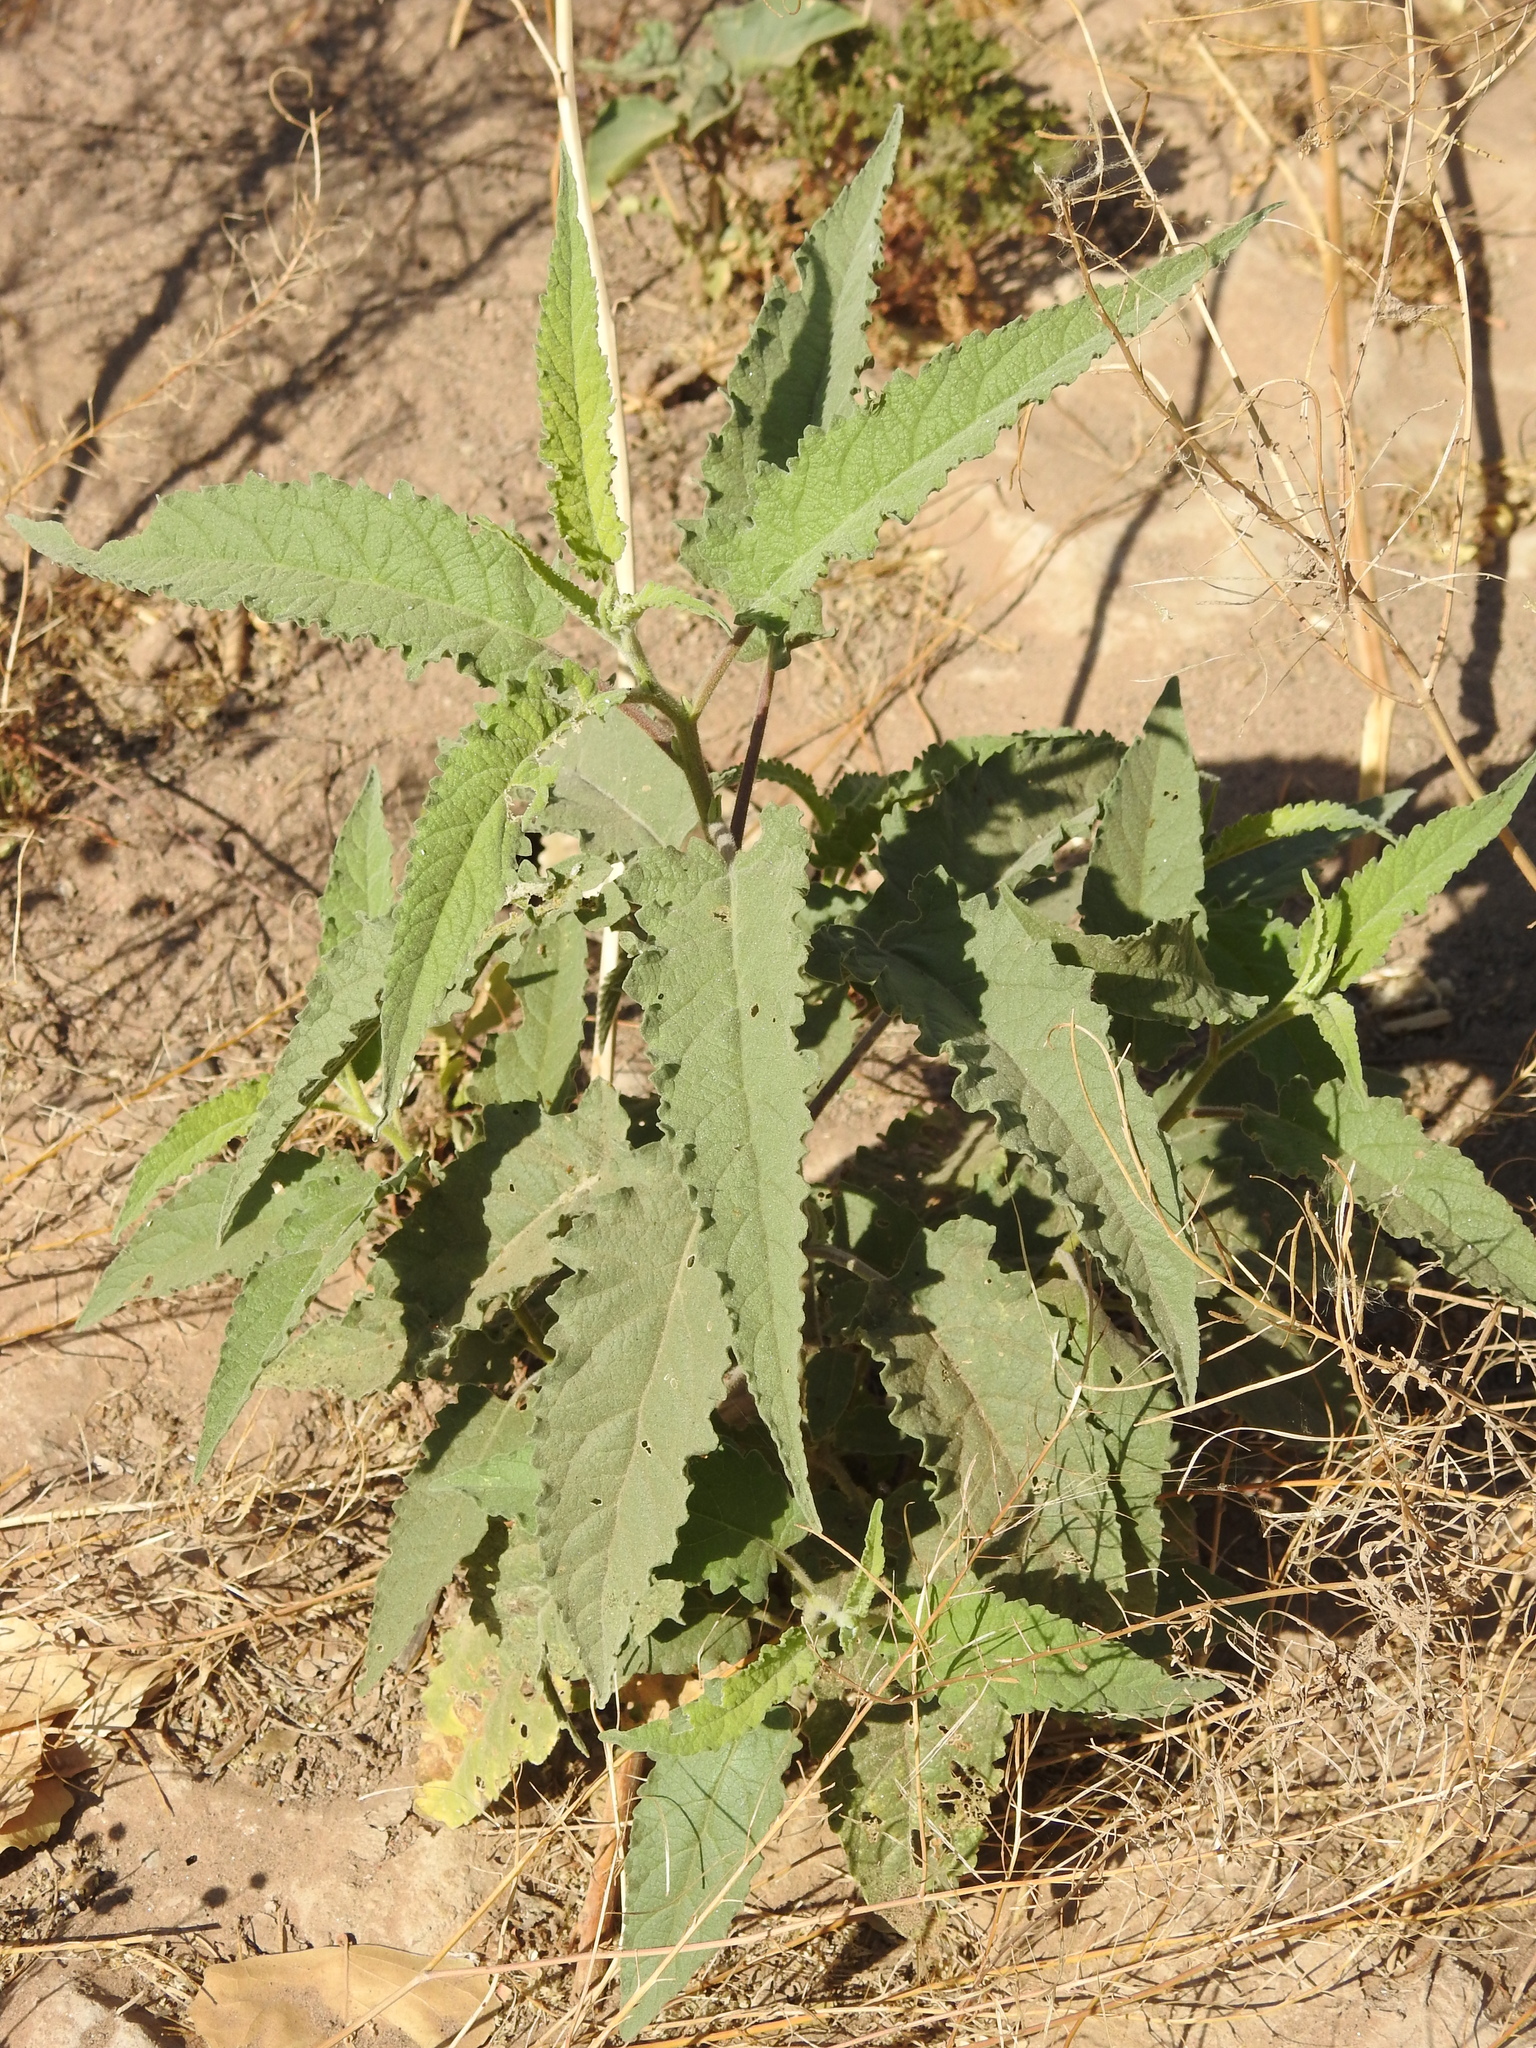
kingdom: Plantae
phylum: Tracheophyta
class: Magnoliopsida
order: Asterales
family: Asteraceae
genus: Ambrosia
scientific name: Ambrosia ambrosioides
